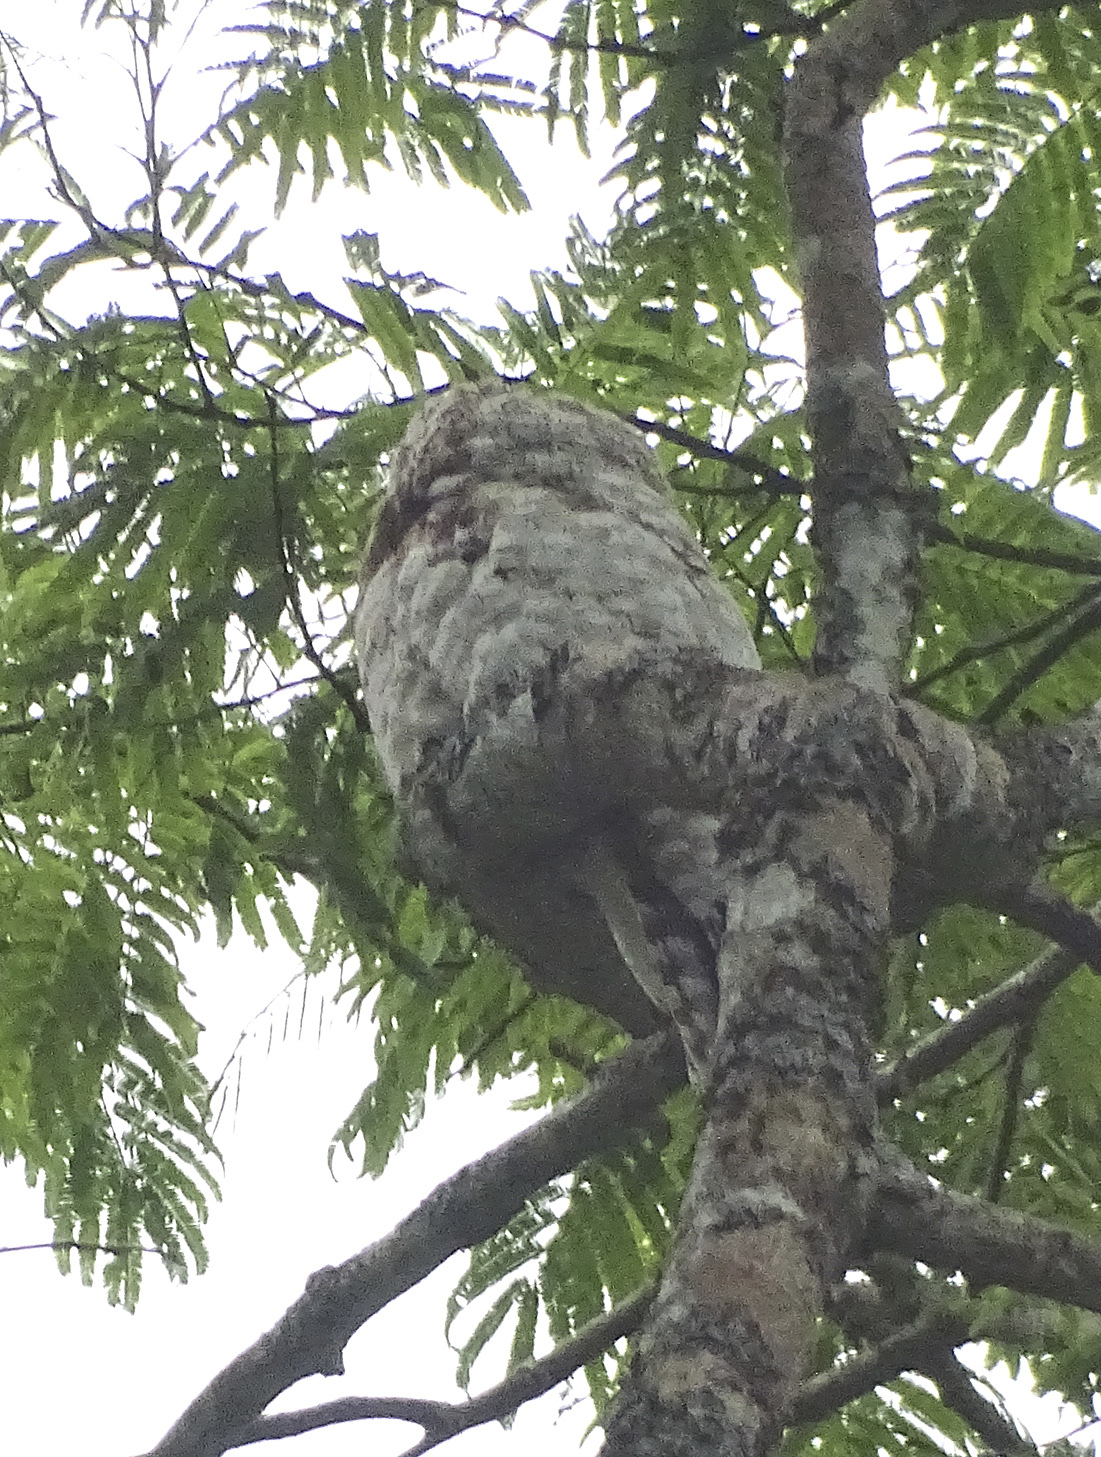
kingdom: Animalia
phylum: Chordata
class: Aves
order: Nyctibiiformes
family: Nyctibiidae
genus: Nyctibius
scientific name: Nyctibius grandis
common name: Great potoo
